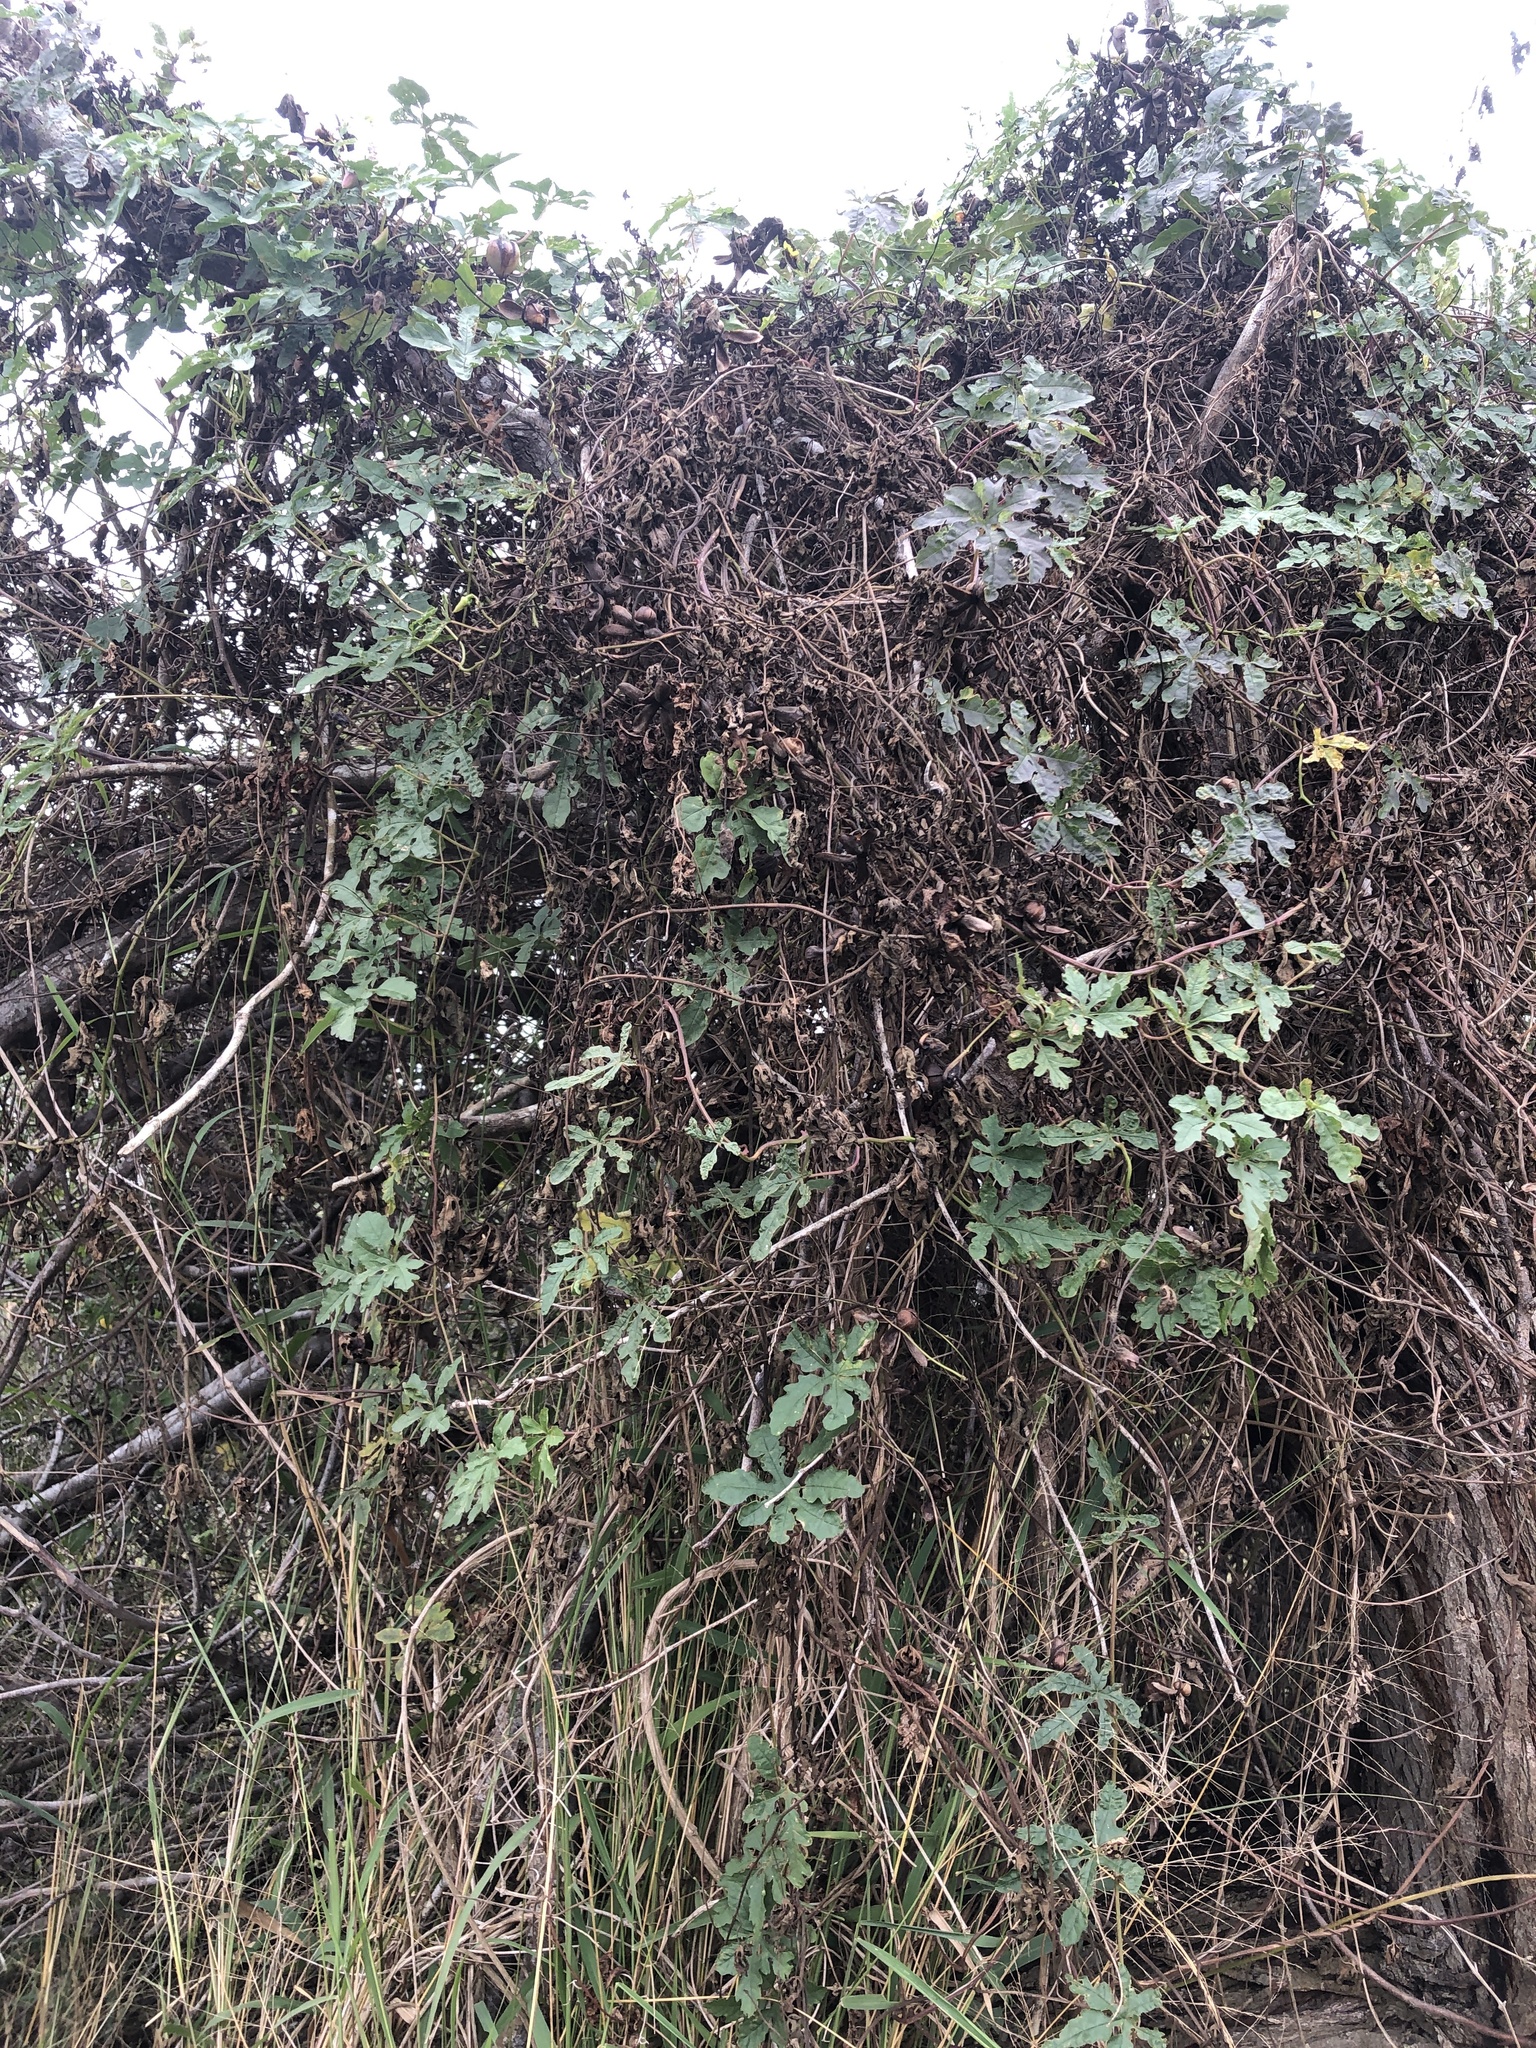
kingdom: Plantae
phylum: Tracheophyta
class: Magnoliopsida
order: Solanales
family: Convolvulaceae
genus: Distimake
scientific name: Distimake dissectus
